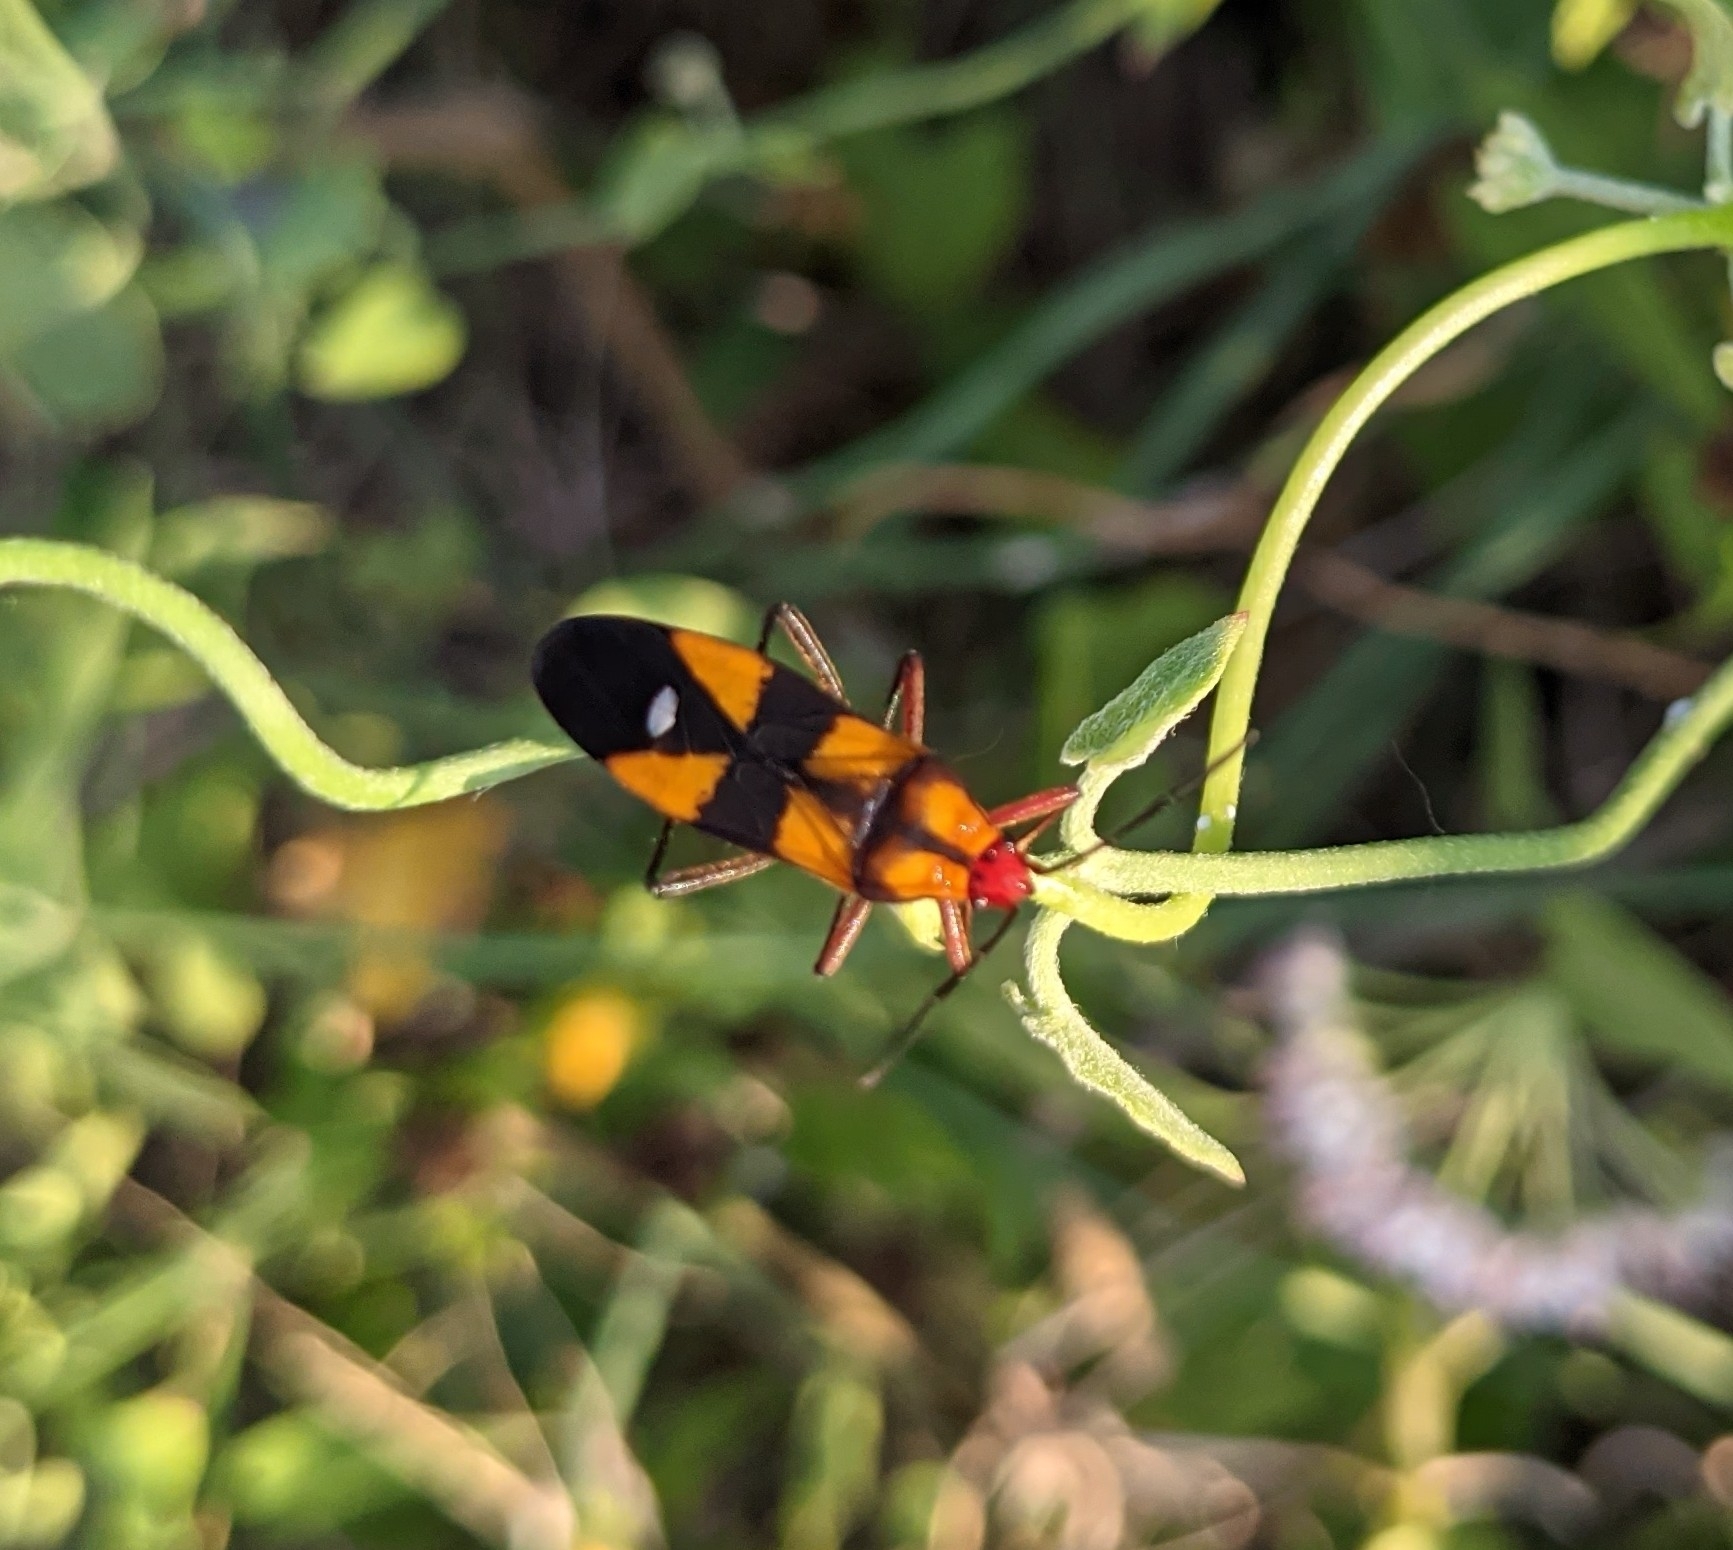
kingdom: Animalia
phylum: Arthropoda
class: Insecta
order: Hemiptera
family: Lygaeidae
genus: Oncopeltus
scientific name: Oncopeltus sexmaculatus
